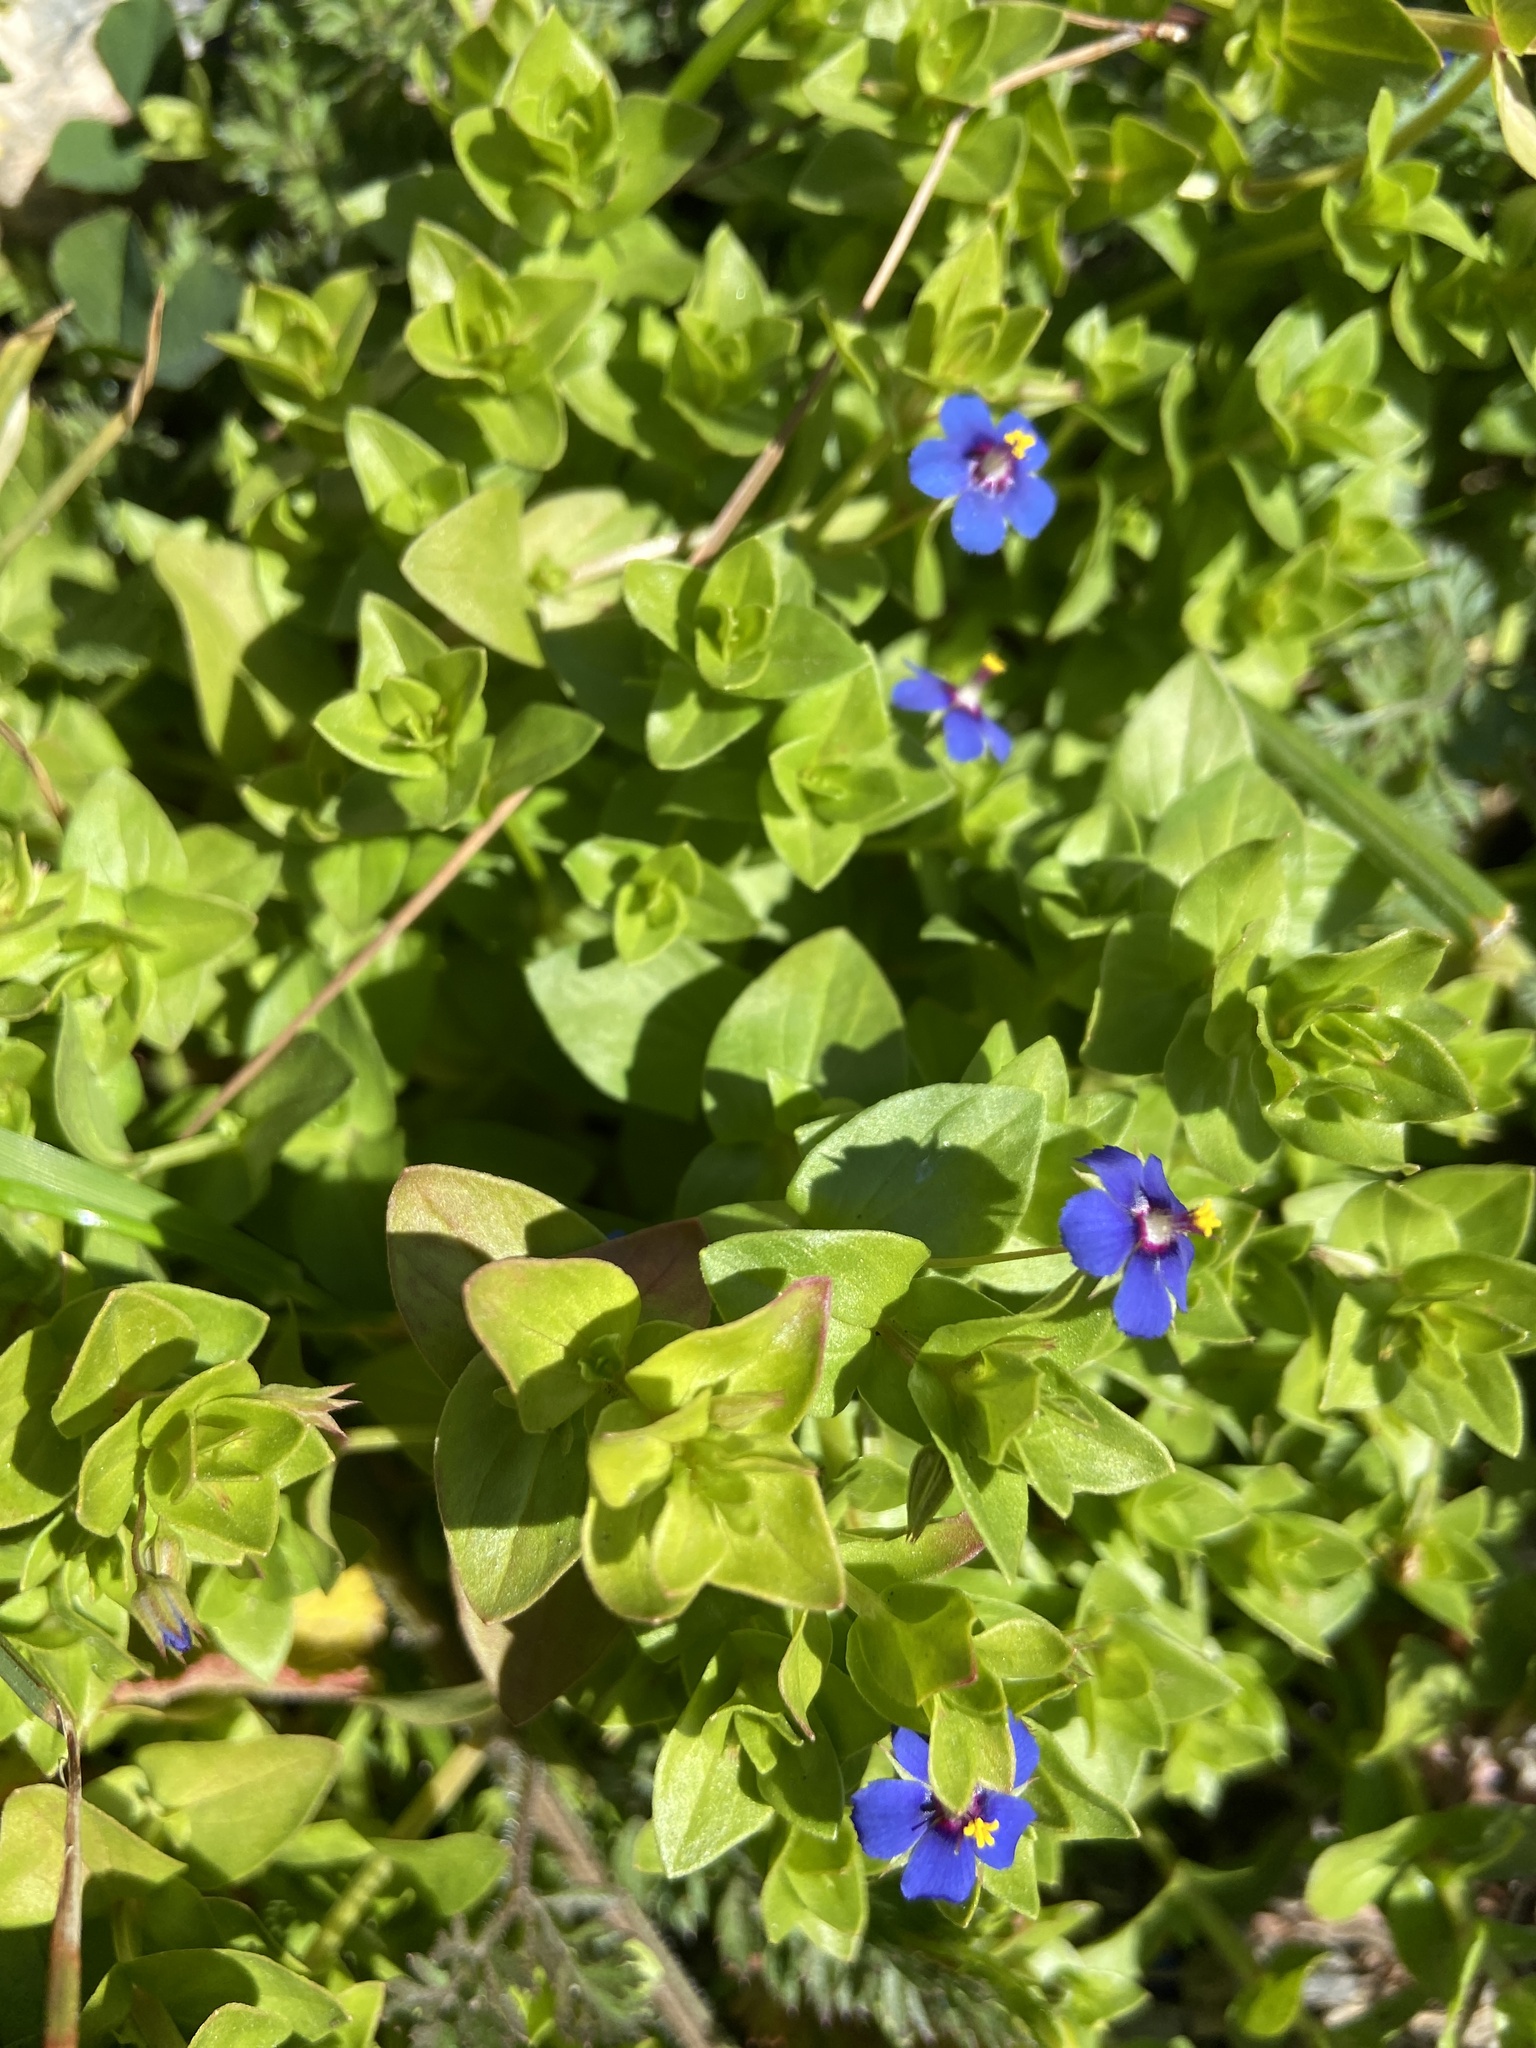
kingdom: Plantae
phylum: Tracheophyta
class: Magnoliopsida
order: Ericales
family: Primulaceae
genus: Lysimachia
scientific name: Lysimachia foemina
